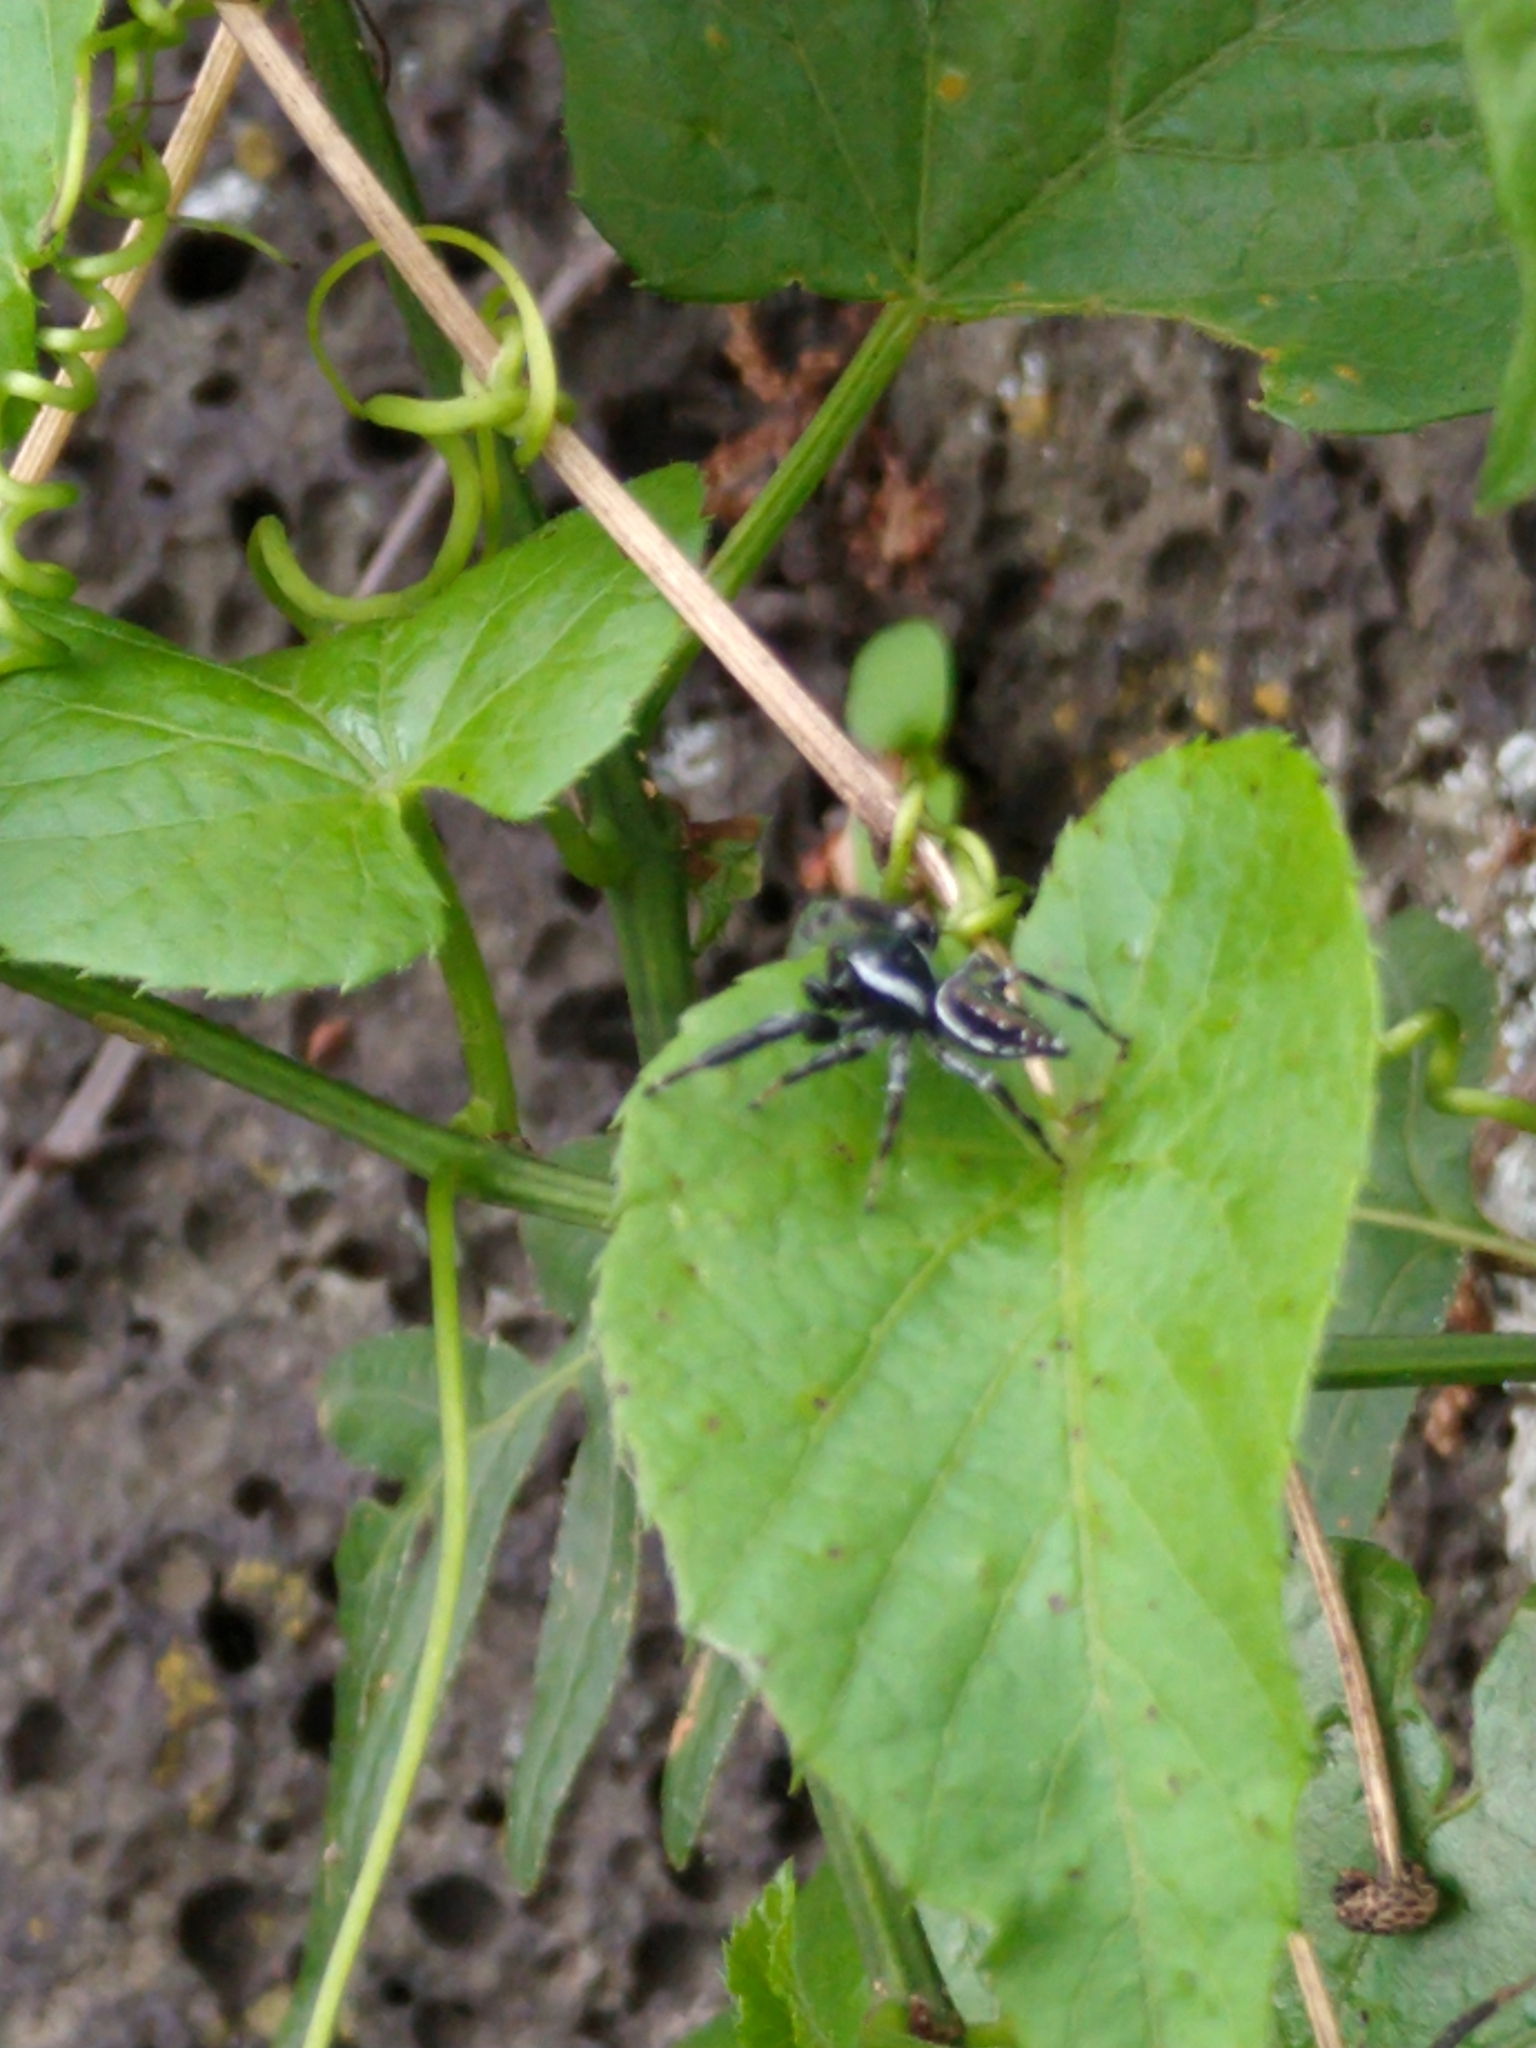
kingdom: Animalia
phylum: Arthropoda
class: Arachnida
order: Araneae
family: Salticidae
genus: Paraphidippus
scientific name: Paraphidippus aurantius
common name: Jumping spiders
